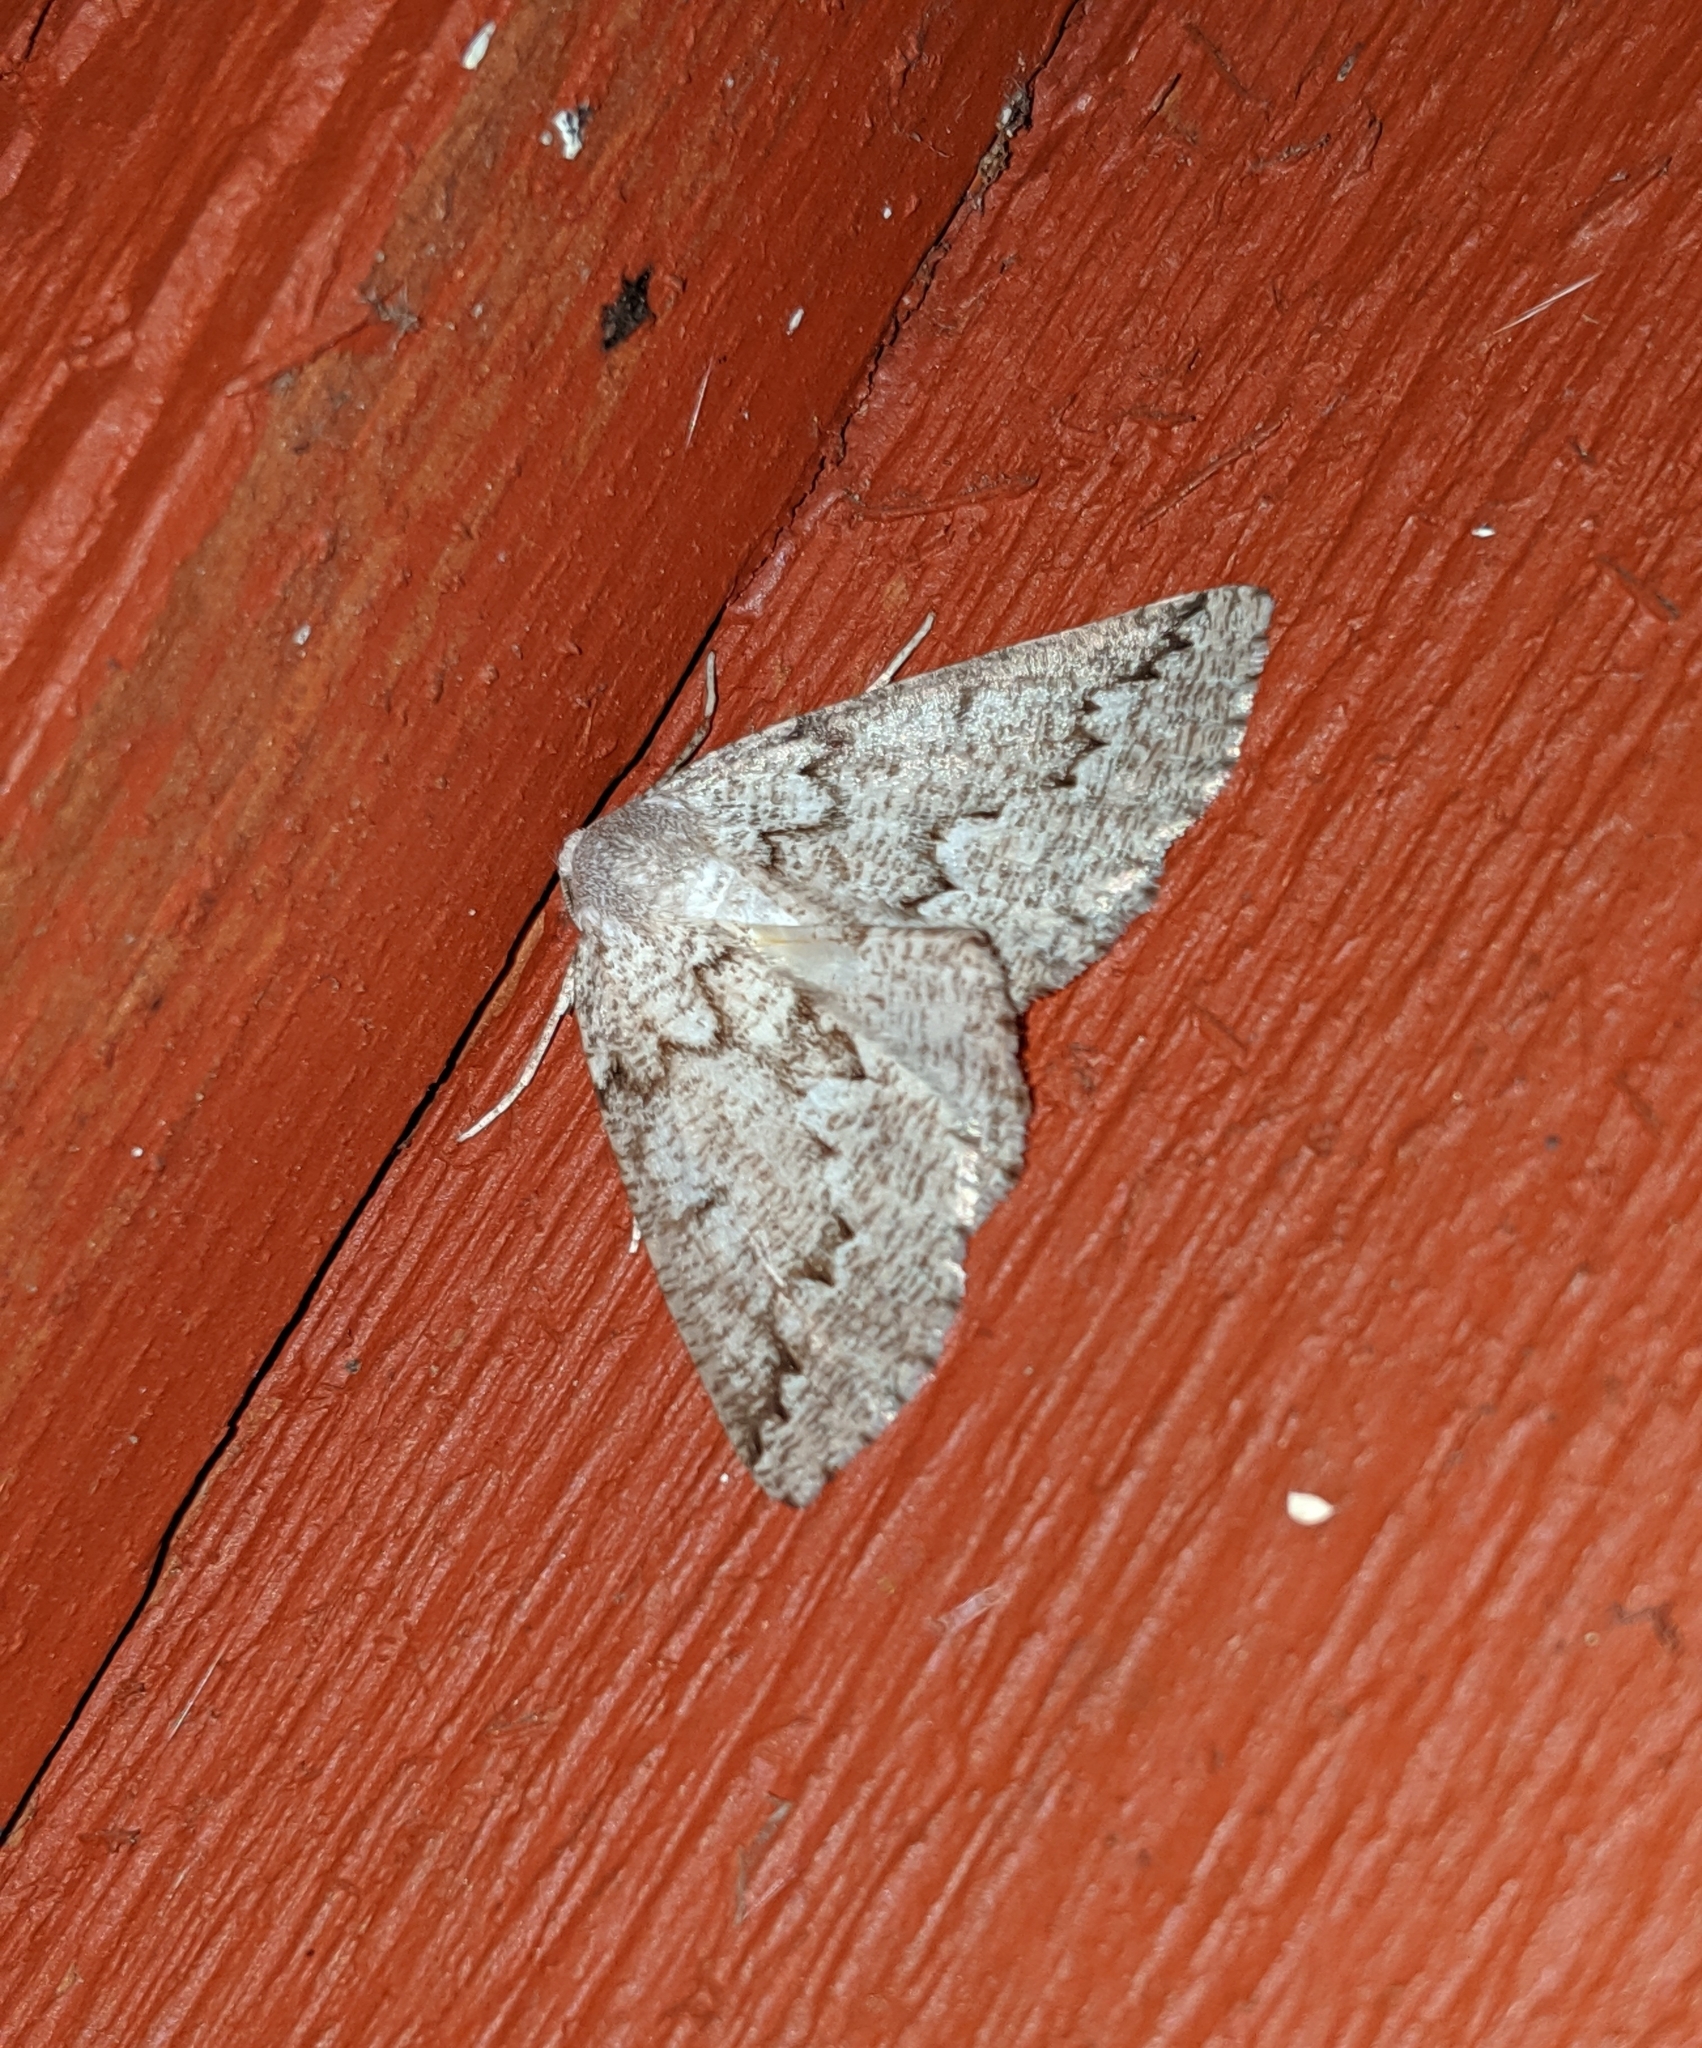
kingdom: Animalia
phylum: Arthropoda
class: Insecta
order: Lepidoptera
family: Geometridae
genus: Sabulodes
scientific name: Sabulodes
